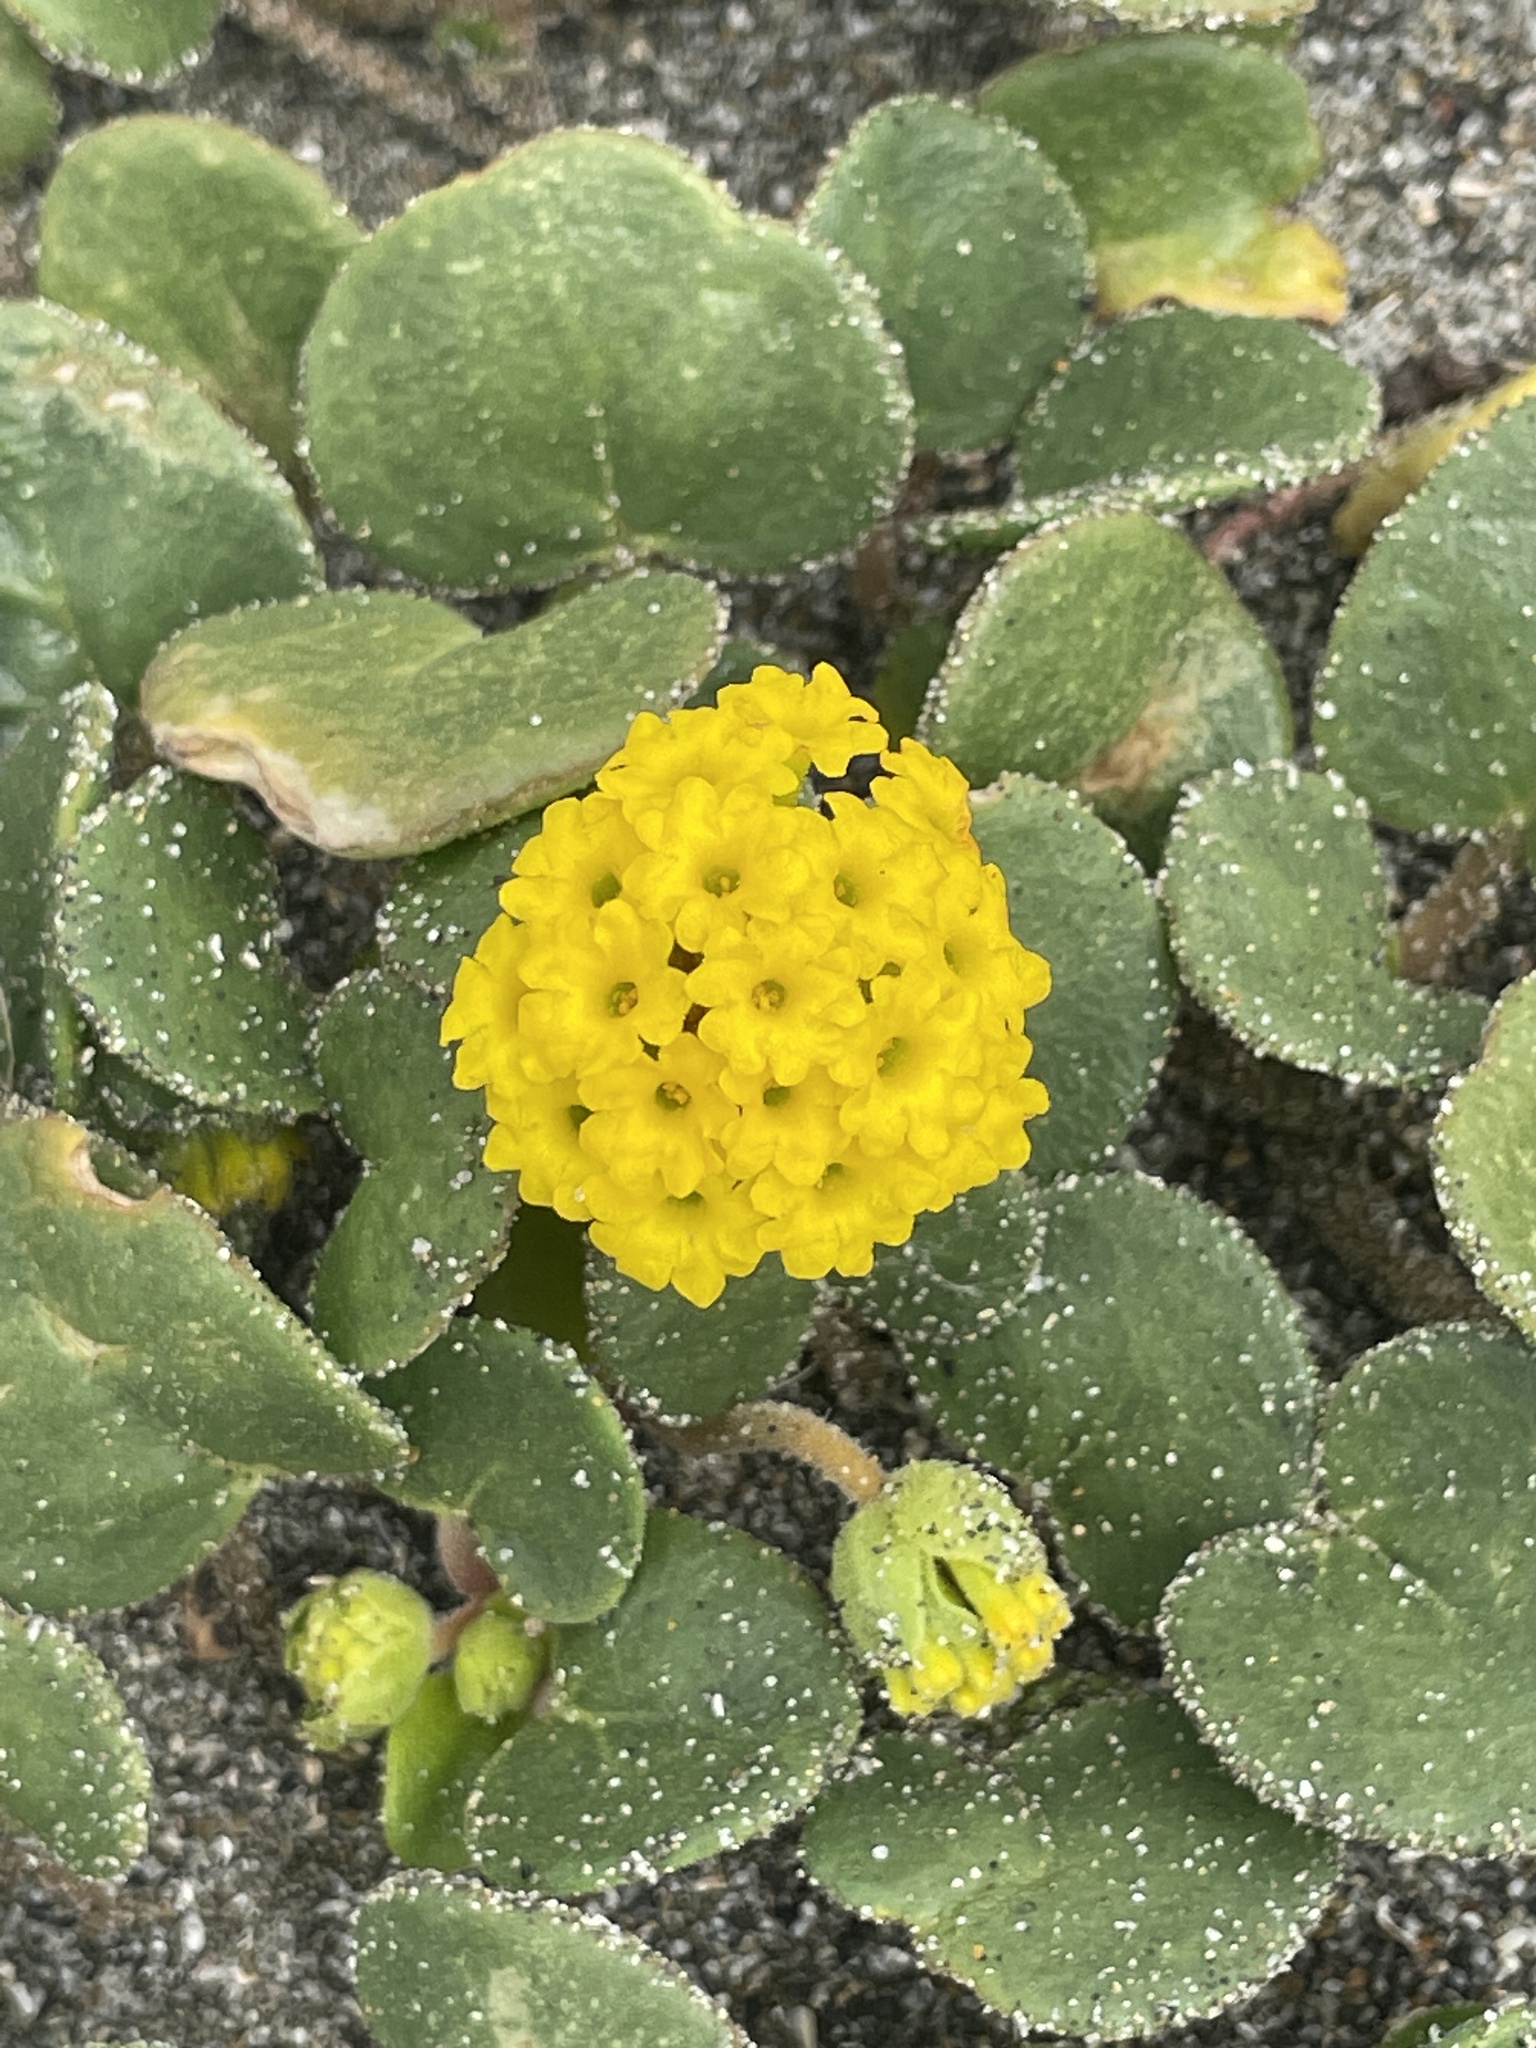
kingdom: Plantae
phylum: Tracheophyta
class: Magnoliopsida
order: Caryophyllales
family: Nyctaginaceae
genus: Abronia
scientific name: Abronia latifolia
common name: Yellow sand-verbena
